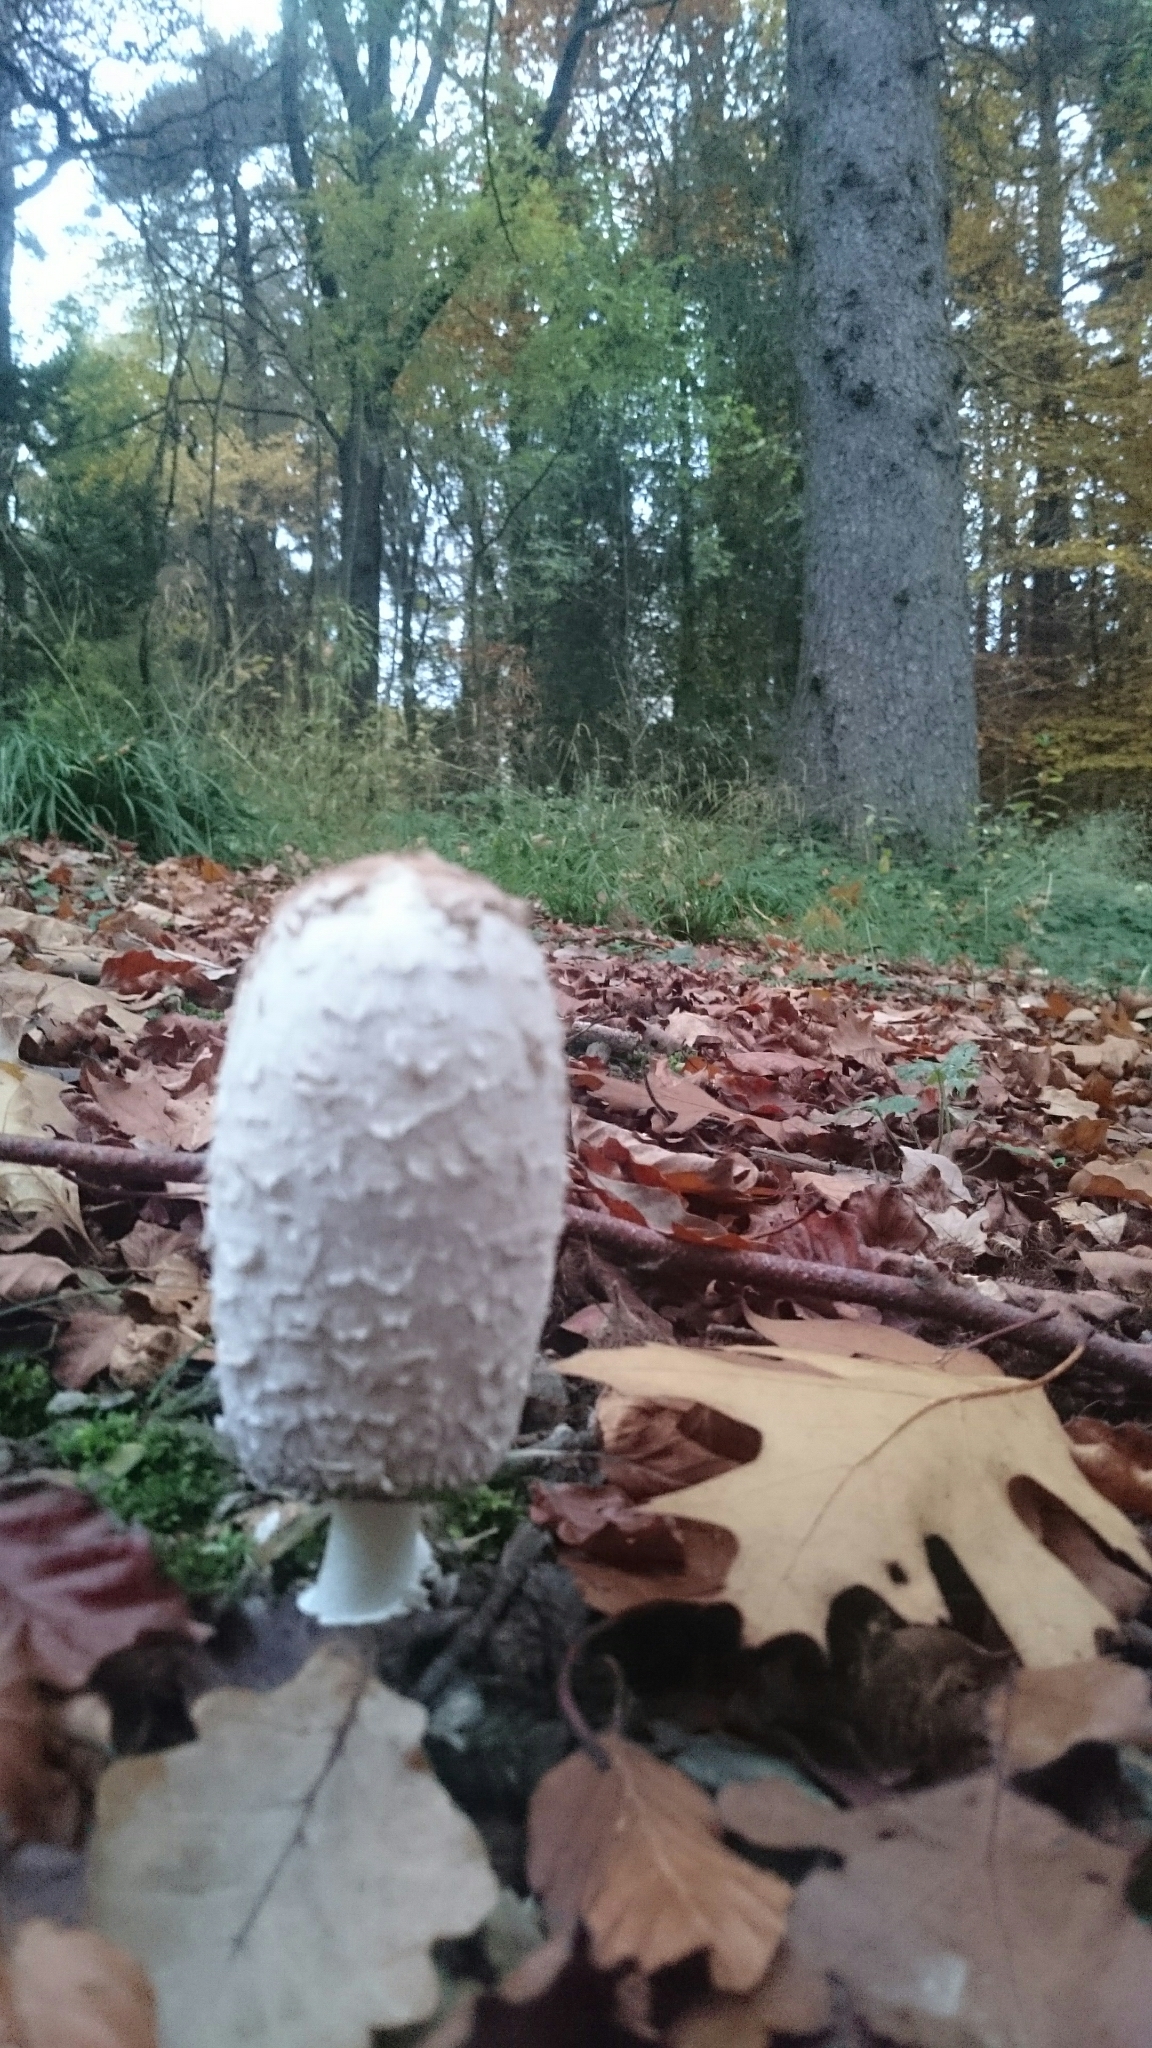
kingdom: Fungi
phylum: Basidiomycota
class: Agaricomycetes
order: Agaricales
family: Agaricaceae
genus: Coprinus
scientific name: Coprinus comatus
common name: Lawyer's wig
